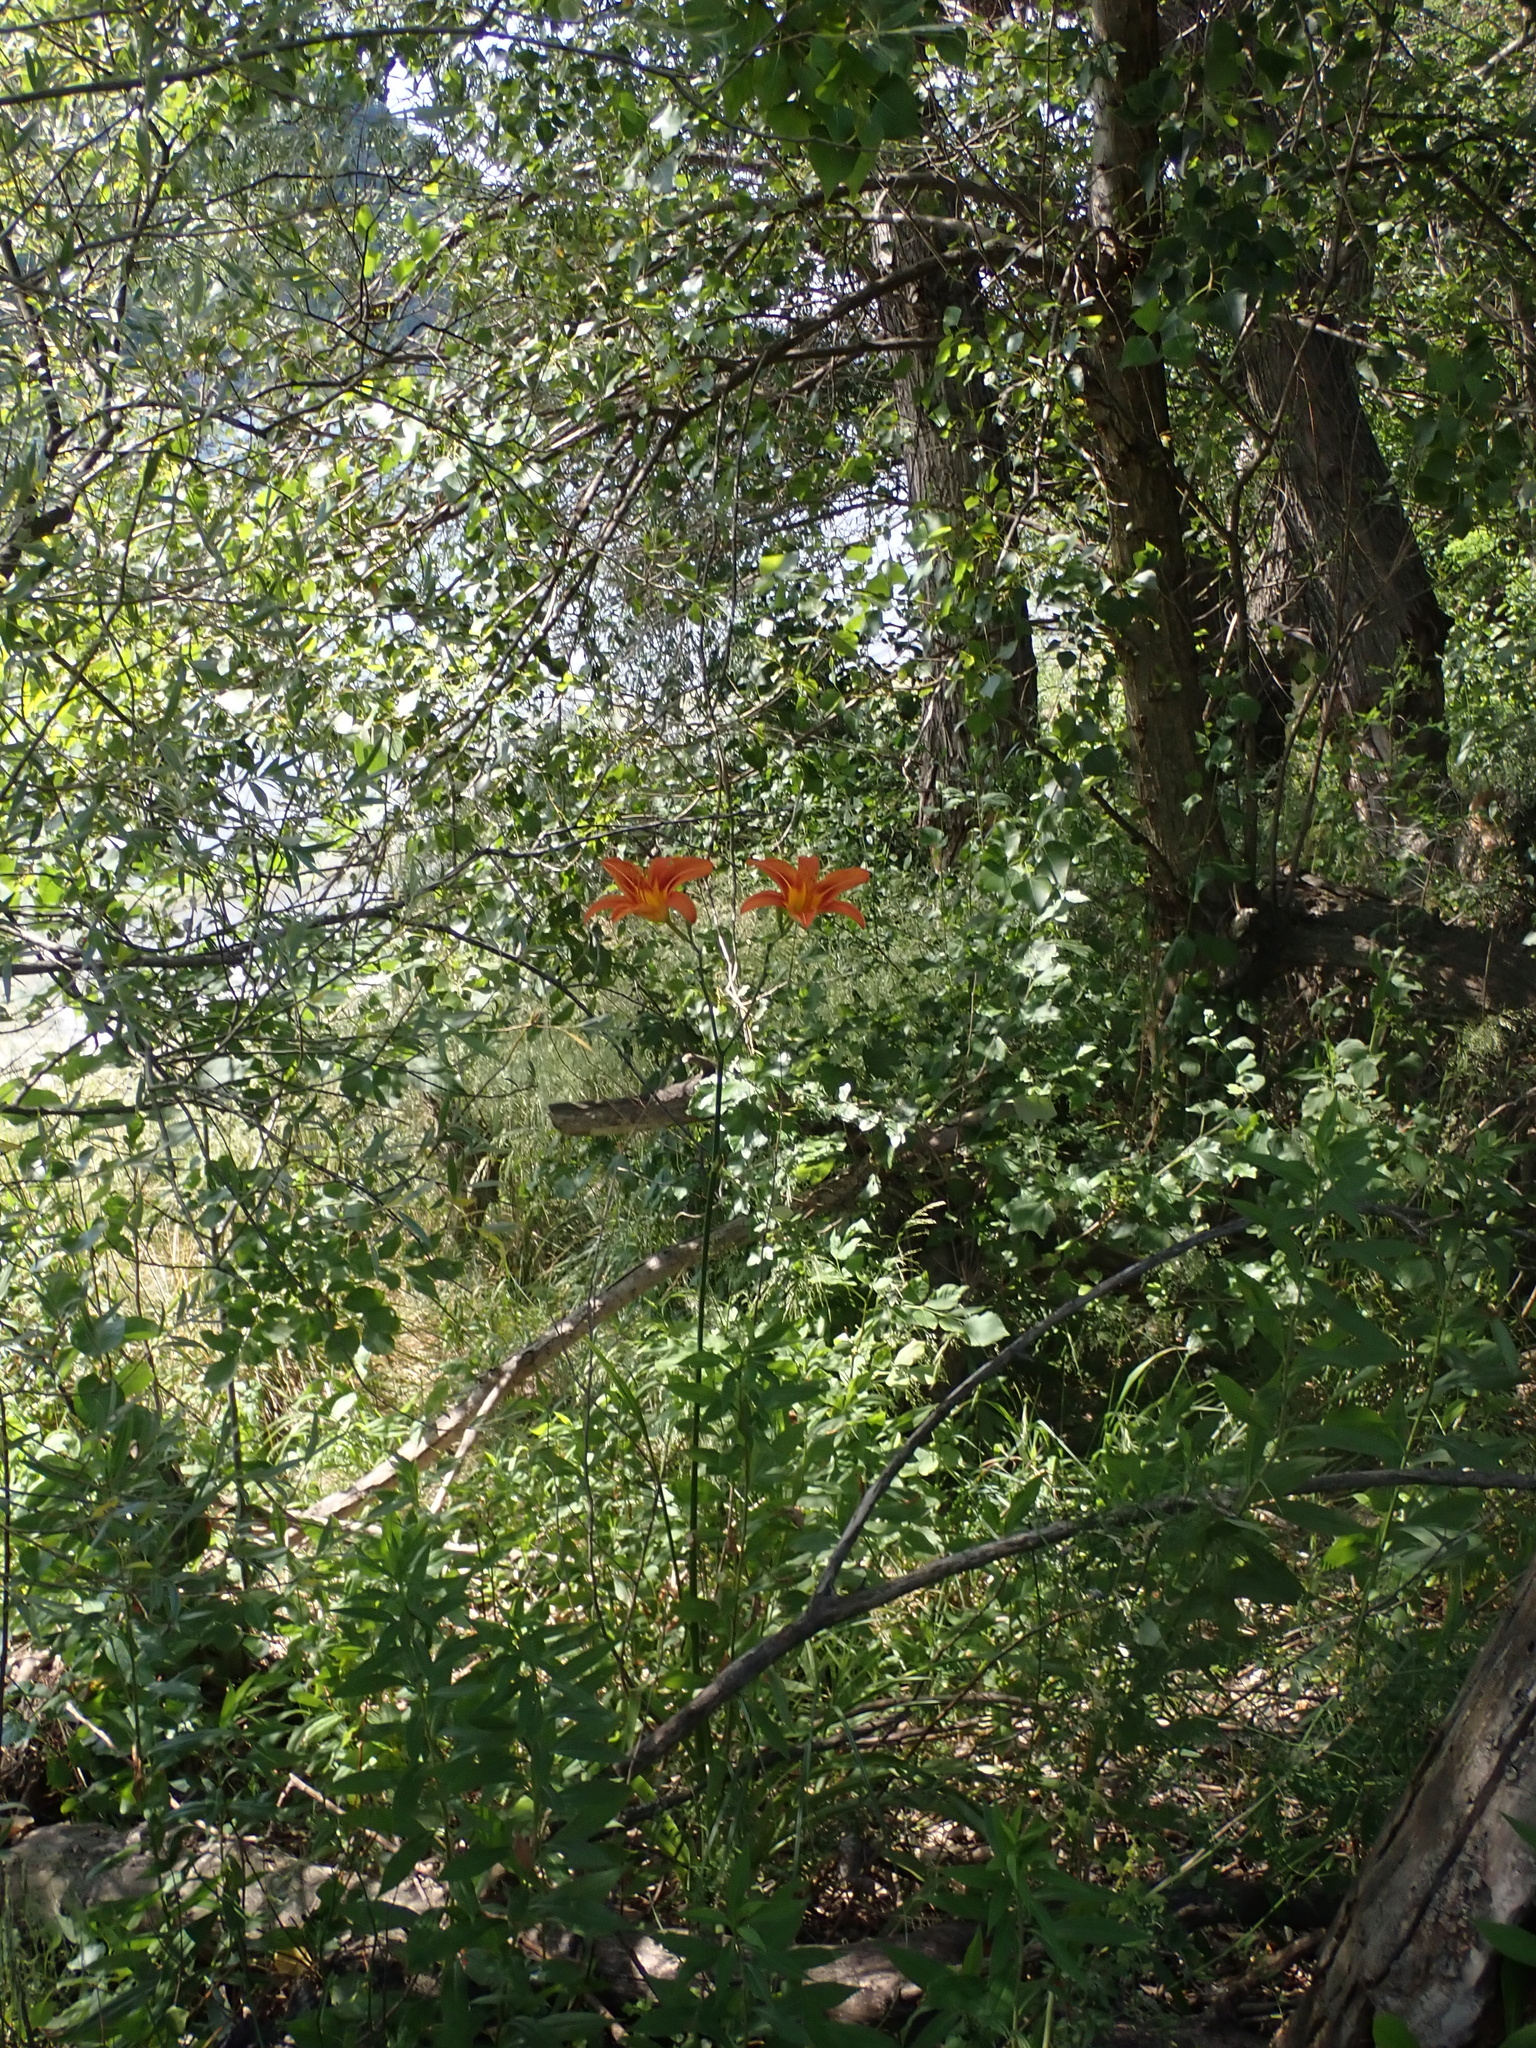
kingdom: Plantae
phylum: Tracheophyta
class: Liliopsida
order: Asparagales
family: Asphodelaceae
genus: Hemerocallis
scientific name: Hemerocallis fulva
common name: Orange day-lily
